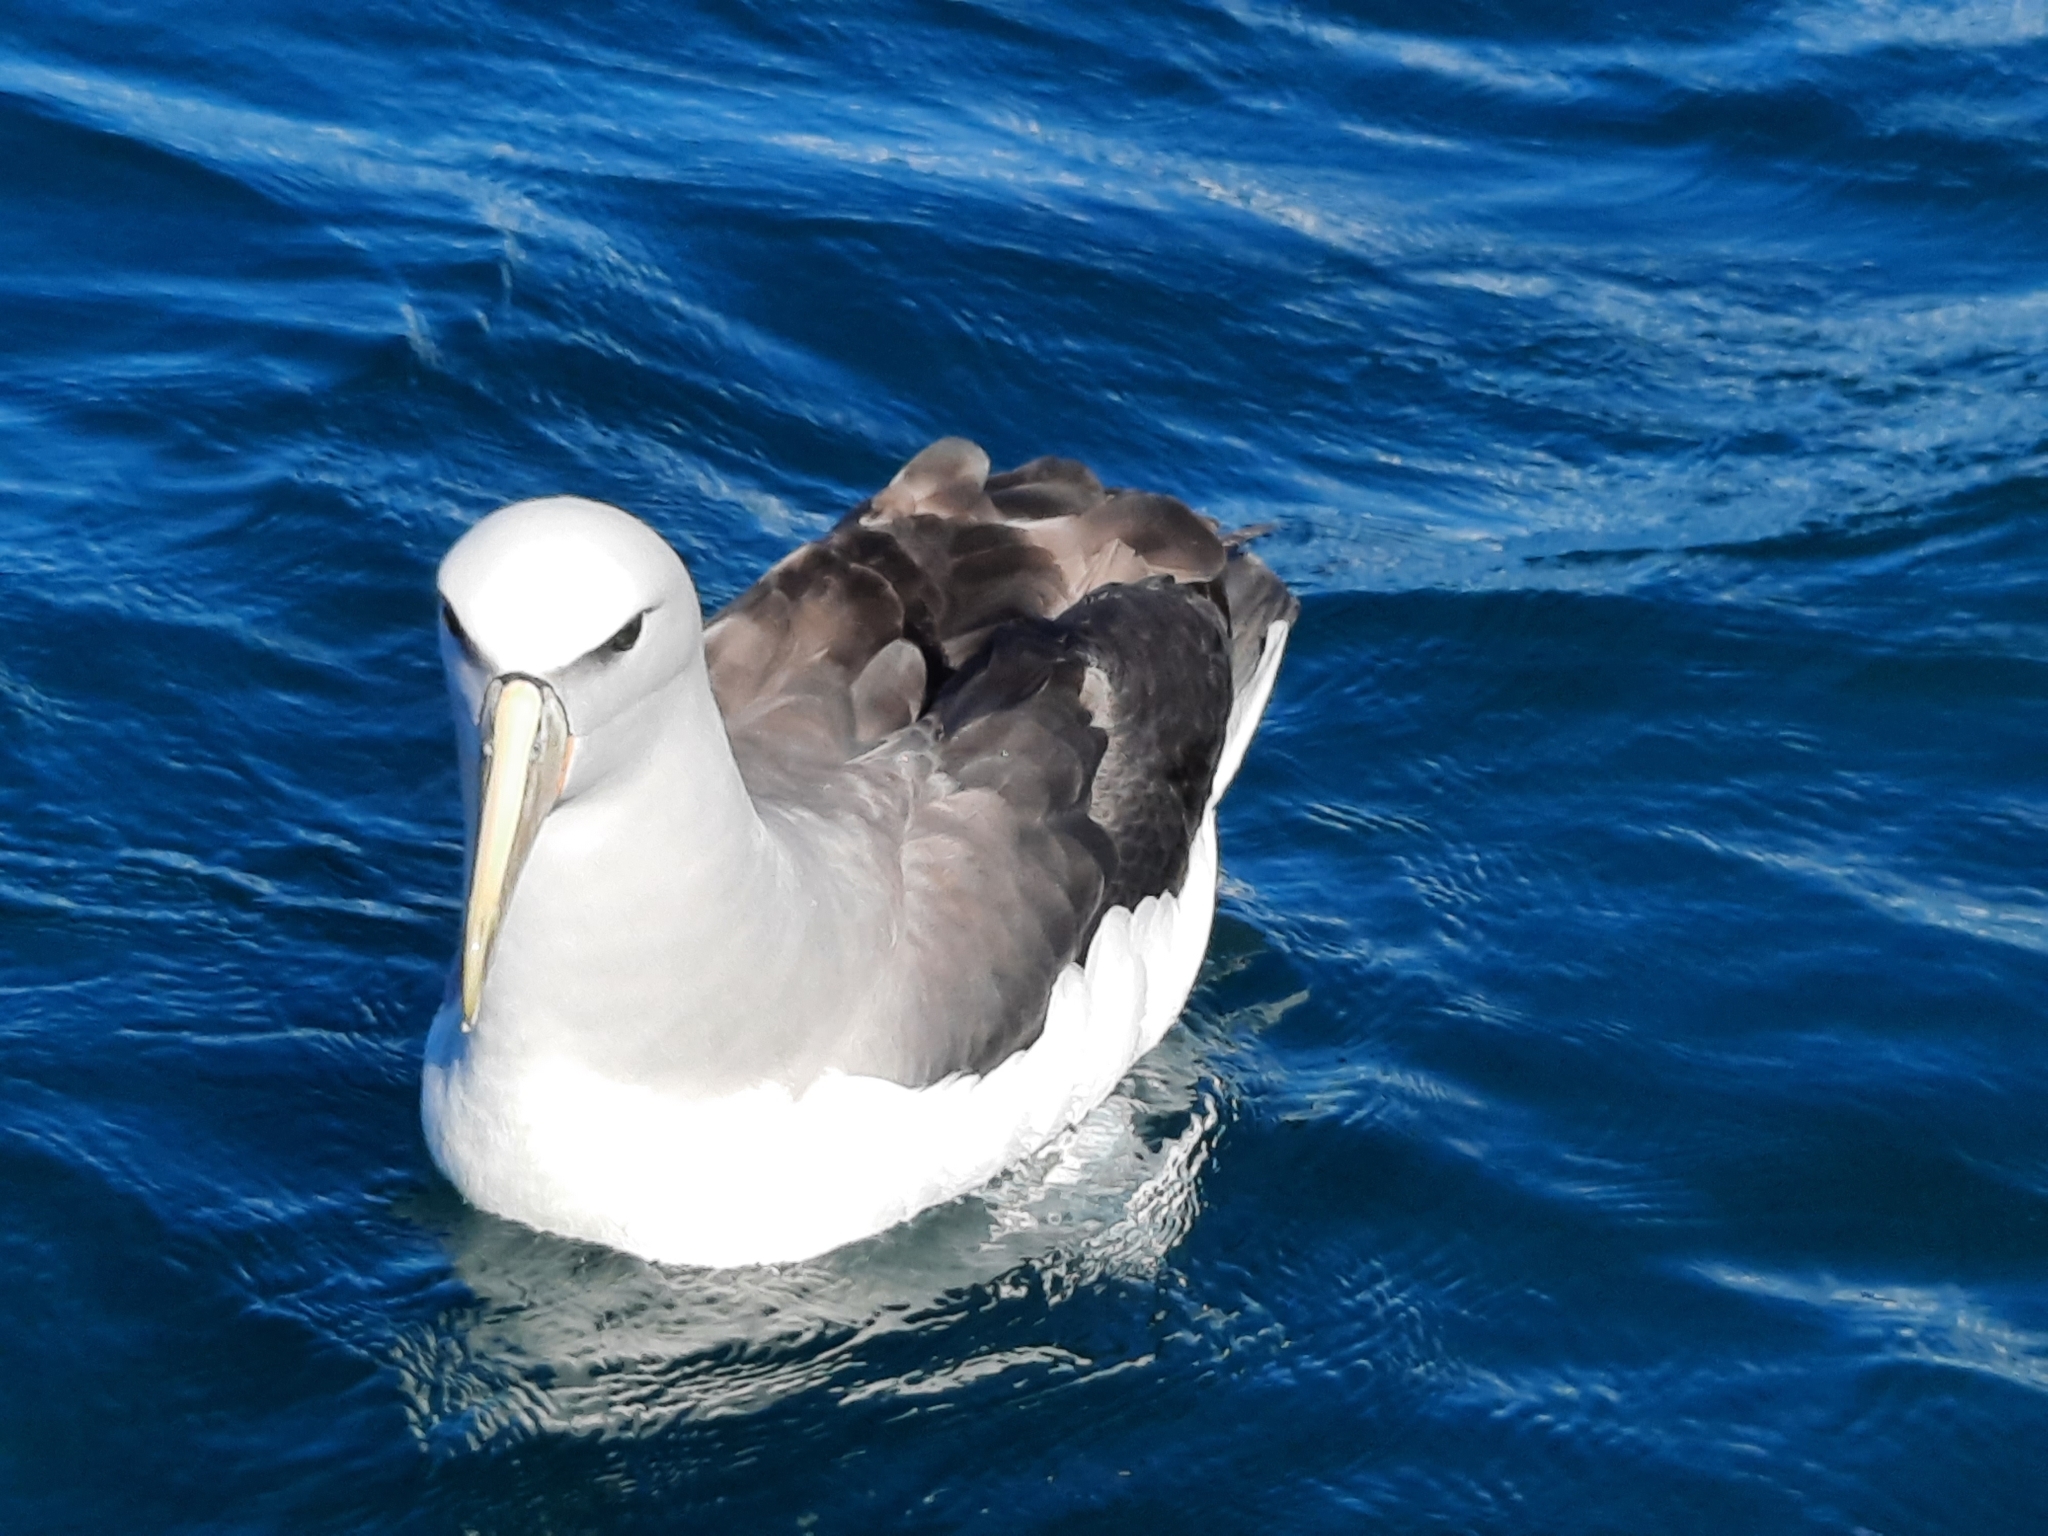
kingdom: Animalia
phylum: Chordata
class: Aves
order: Procellariiformes
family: Diomedeidae
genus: Thalassarche
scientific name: Thalassarche salvini
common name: Salvin's albatross
